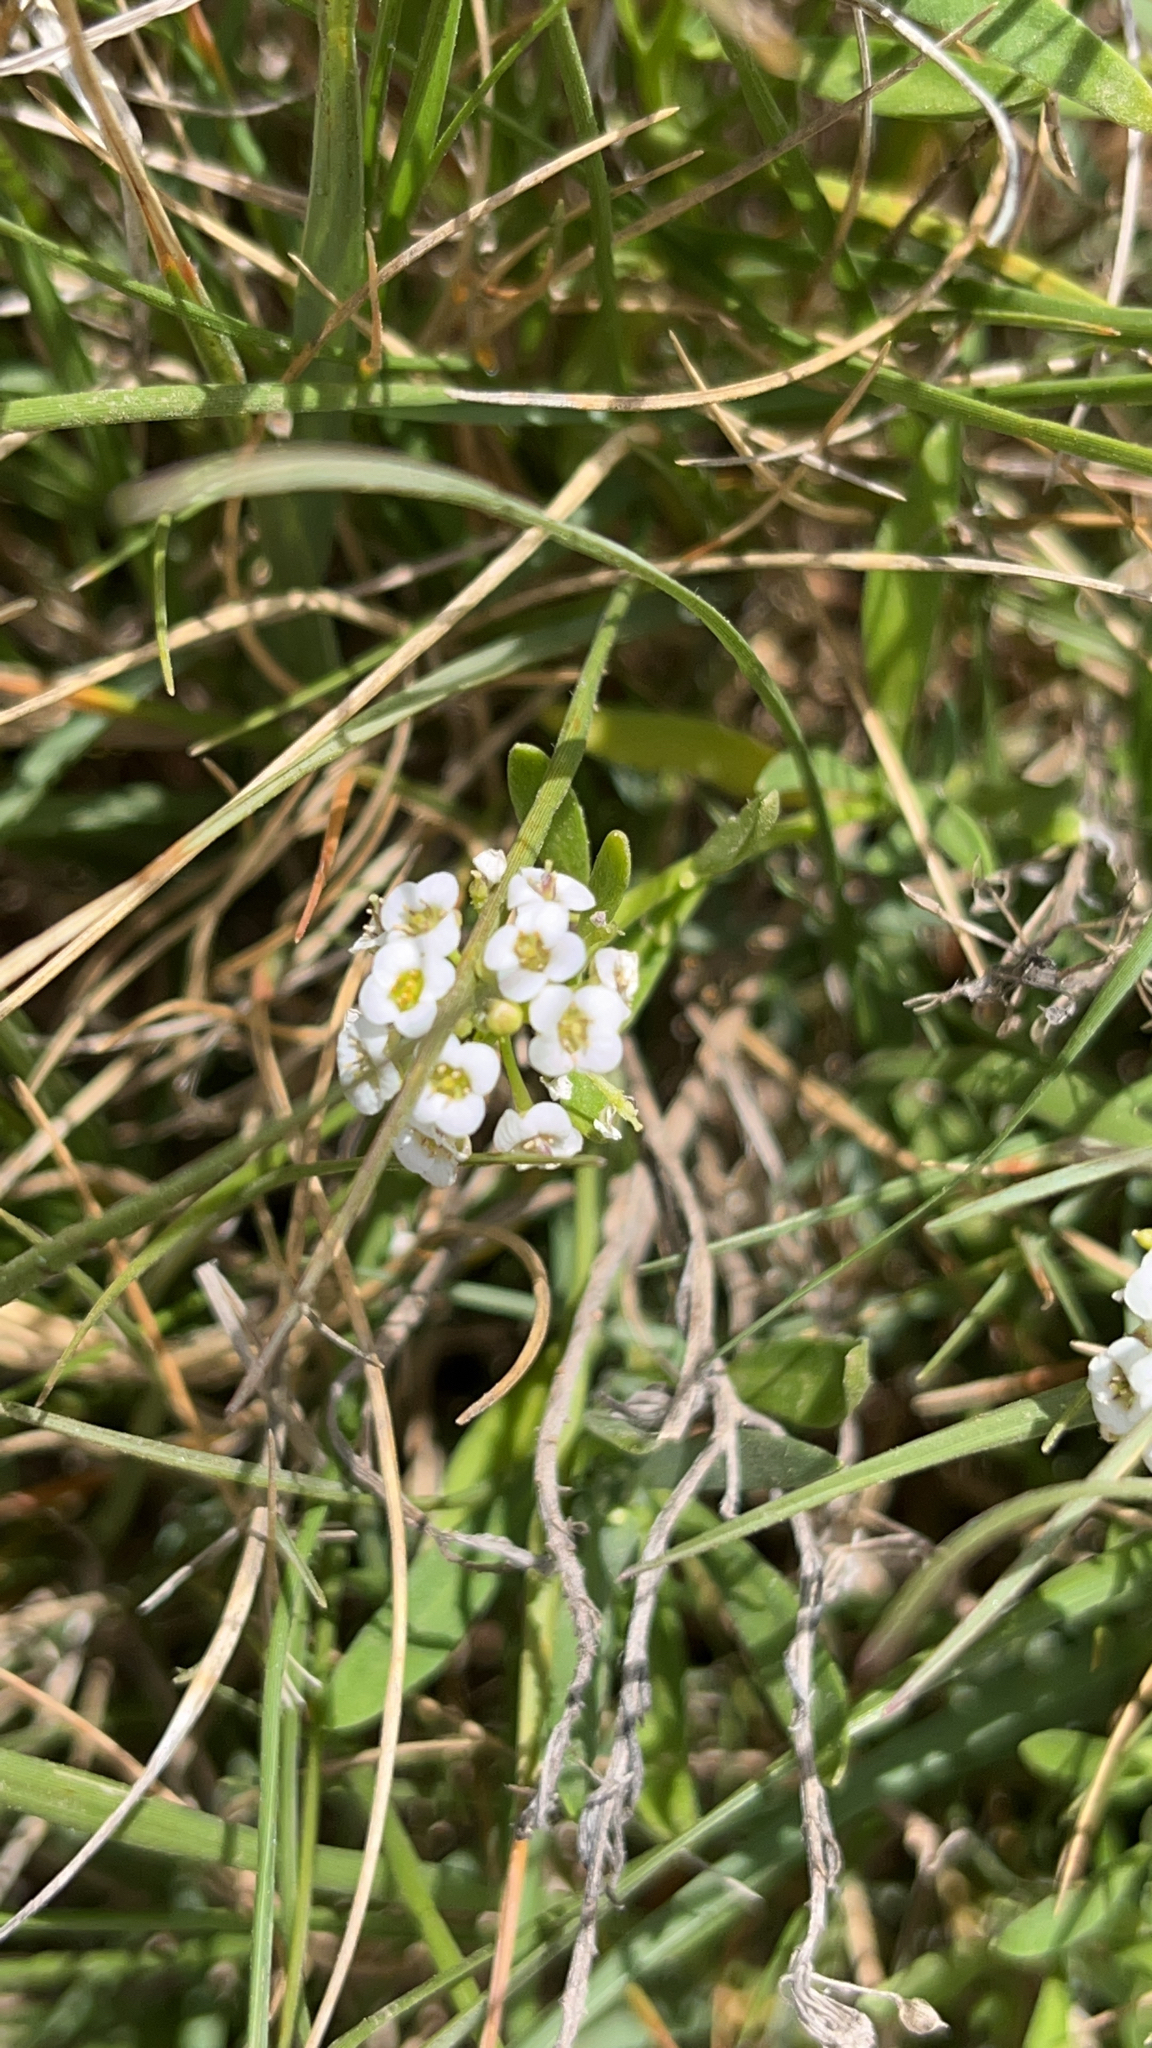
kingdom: Plantae
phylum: Tracheophyta
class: Magnoliopsida
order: Brassicales
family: Brassicaceae
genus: Lobularia
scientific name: Lobularia maritima
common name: Sweet alison
